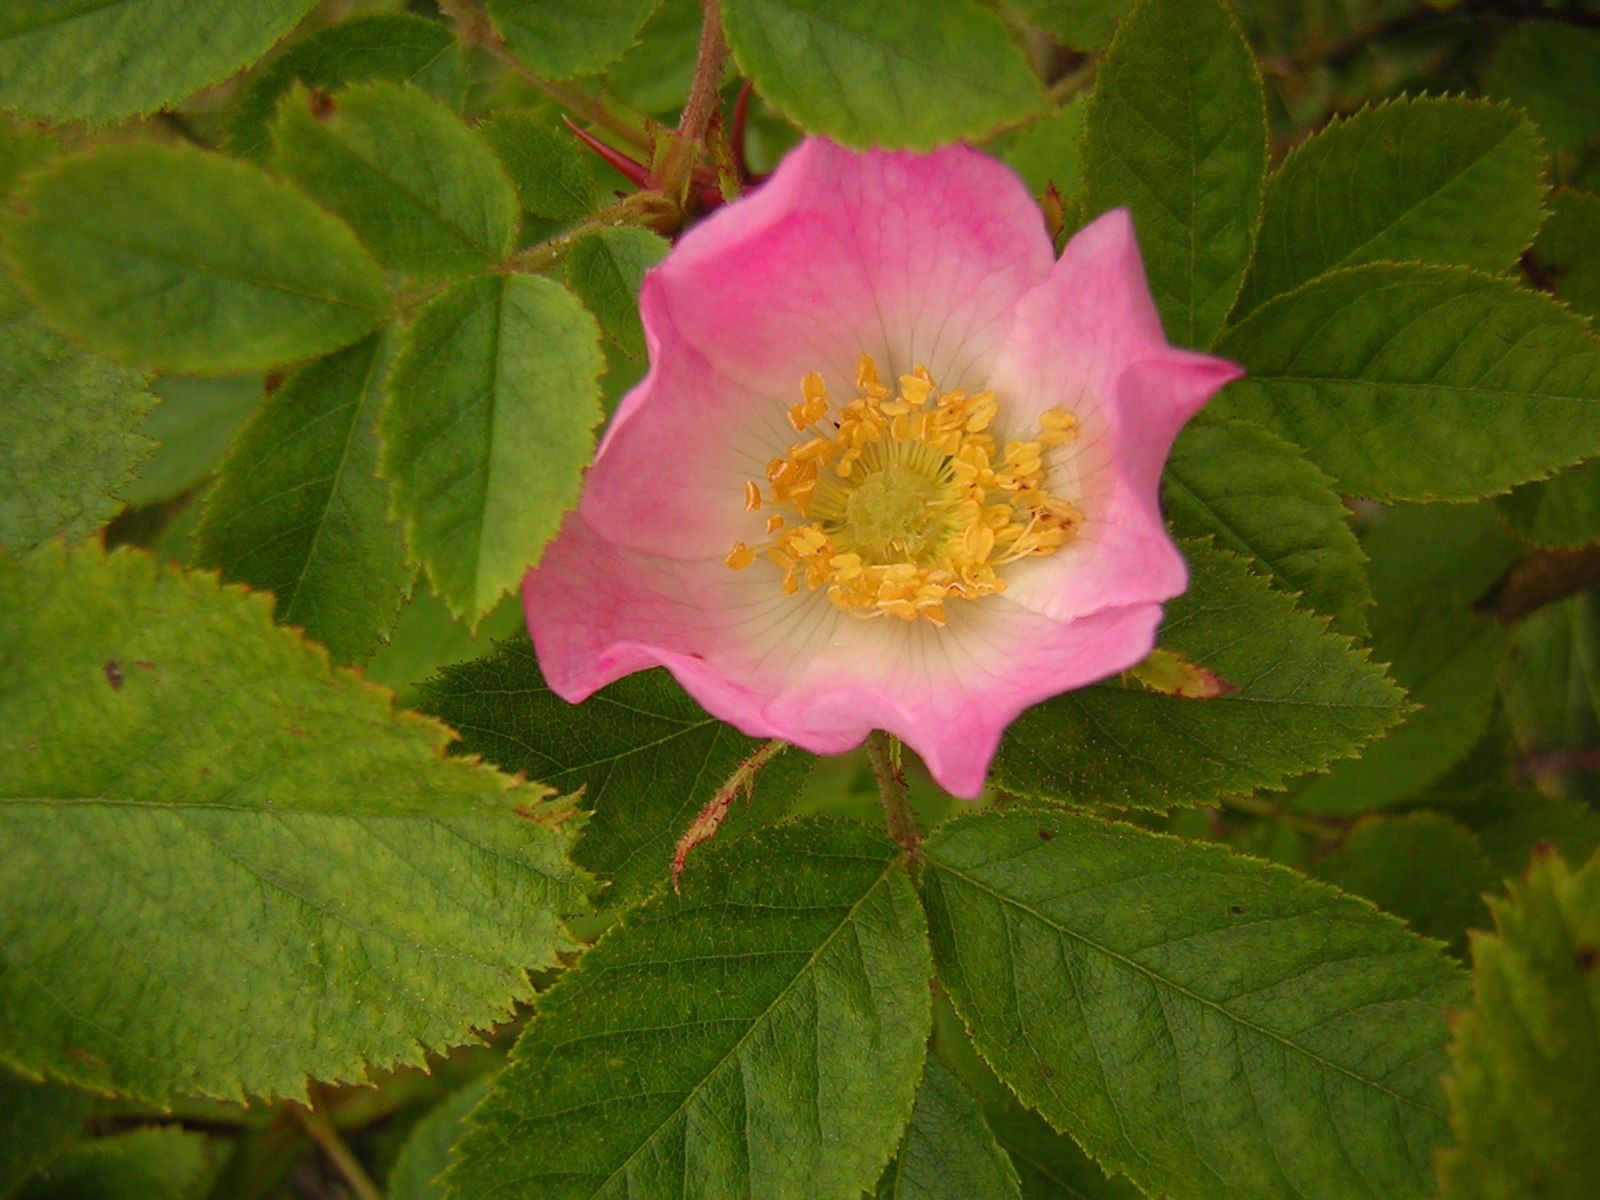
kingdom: Plantae
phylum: Tracheophyta
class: Magnoliopsida
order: Rosales
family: Rosaceae
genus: Rosa
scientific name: Rosa rubiginosa
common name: Sweet-briar
